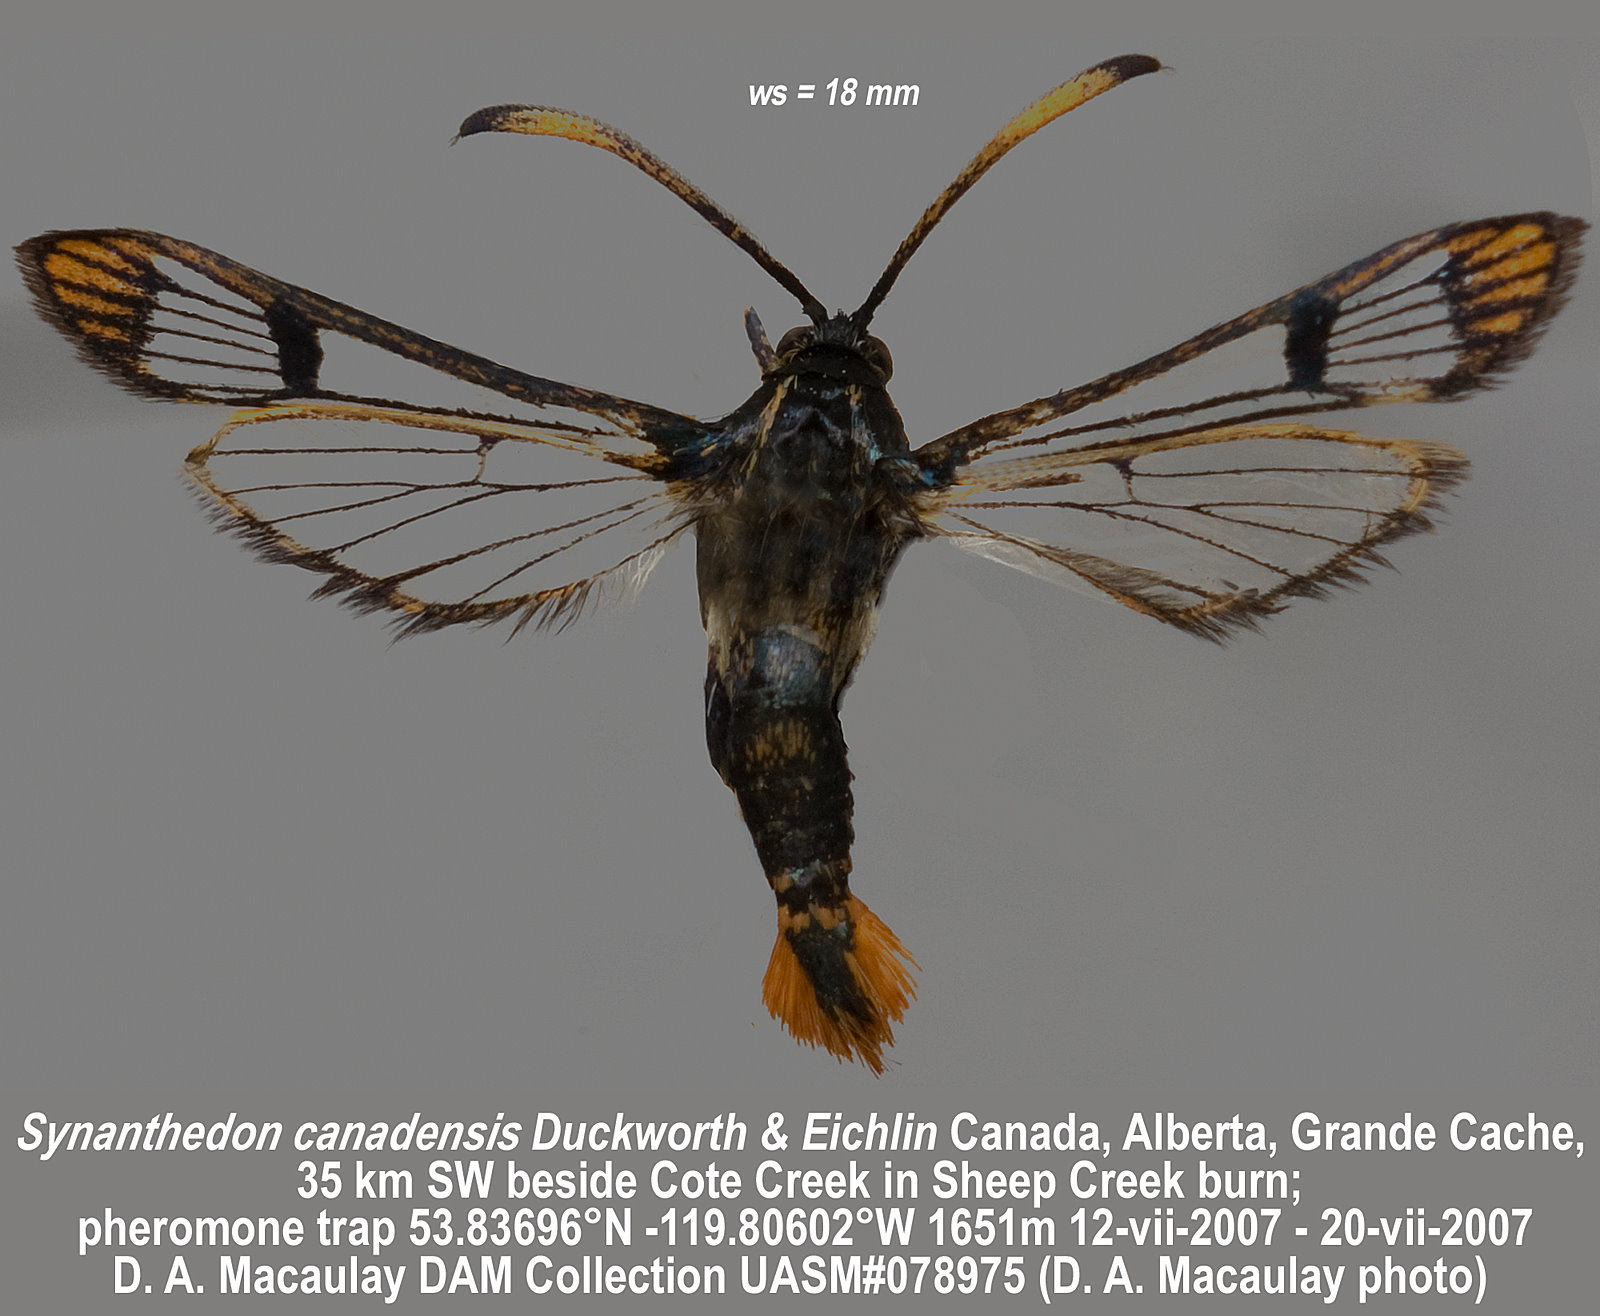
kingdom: Animalia
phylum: Arthropoda
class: Insecta
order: Lepidoptera
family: Sesiidae
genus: Synanthedon
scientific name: Synanthedon canadensis
